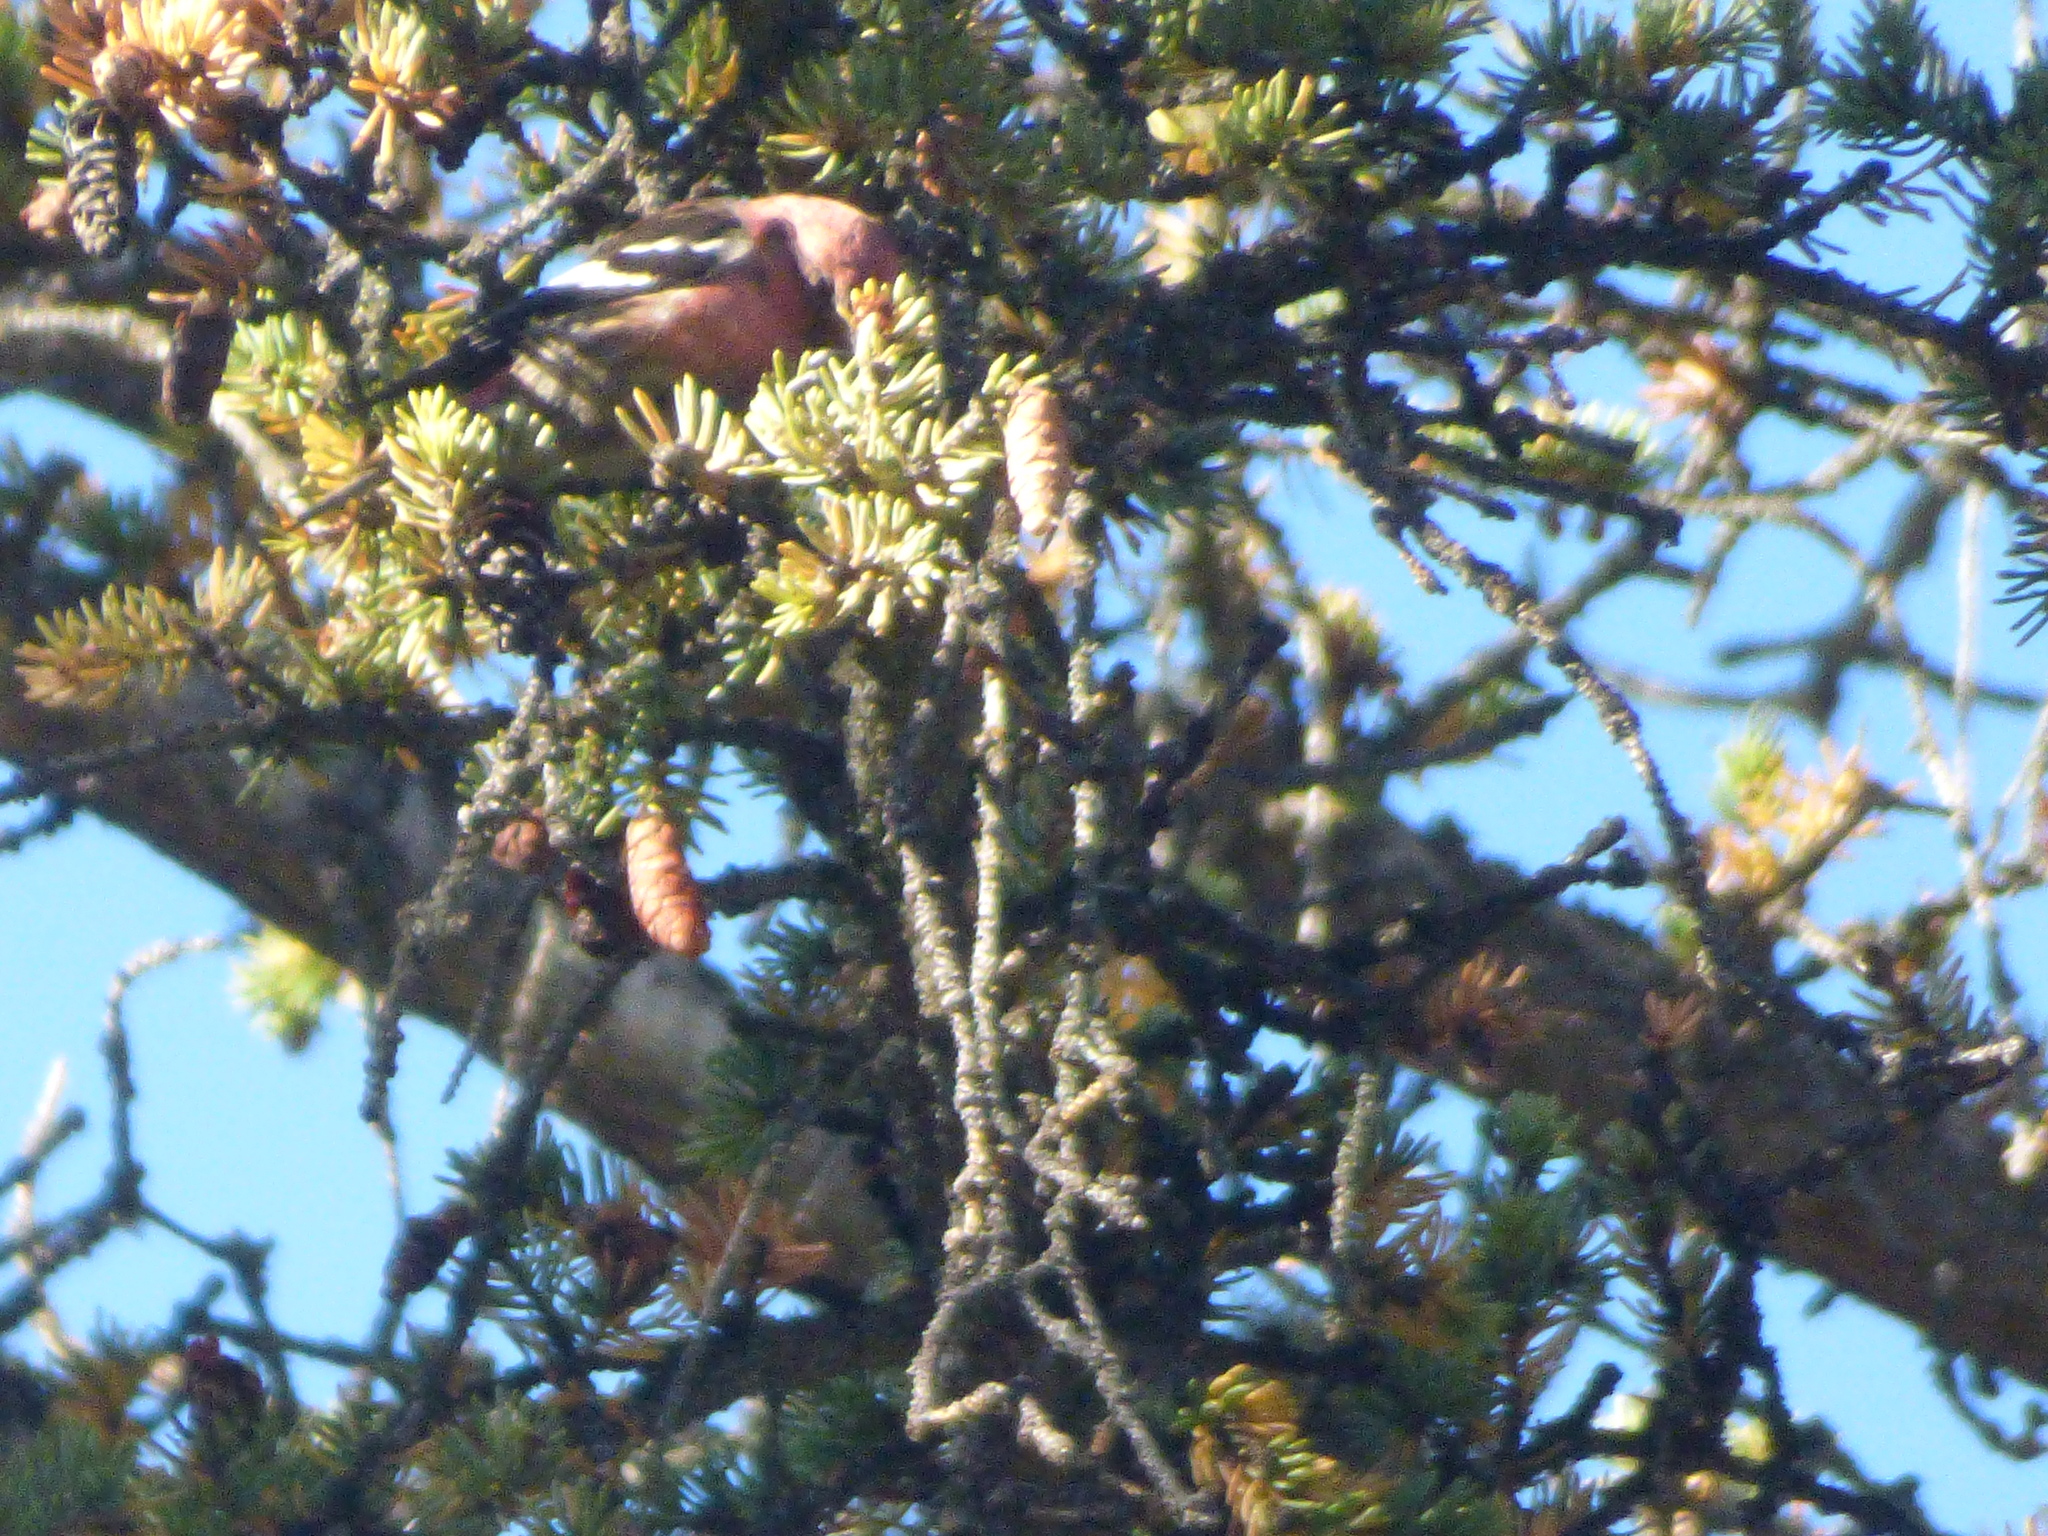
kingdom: Animalia
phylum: Chordata
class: Aves
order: Passeriformes
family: Fringillidae
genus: Loxia
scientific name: Loxia leucoptera
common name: Two-barred crossbill
